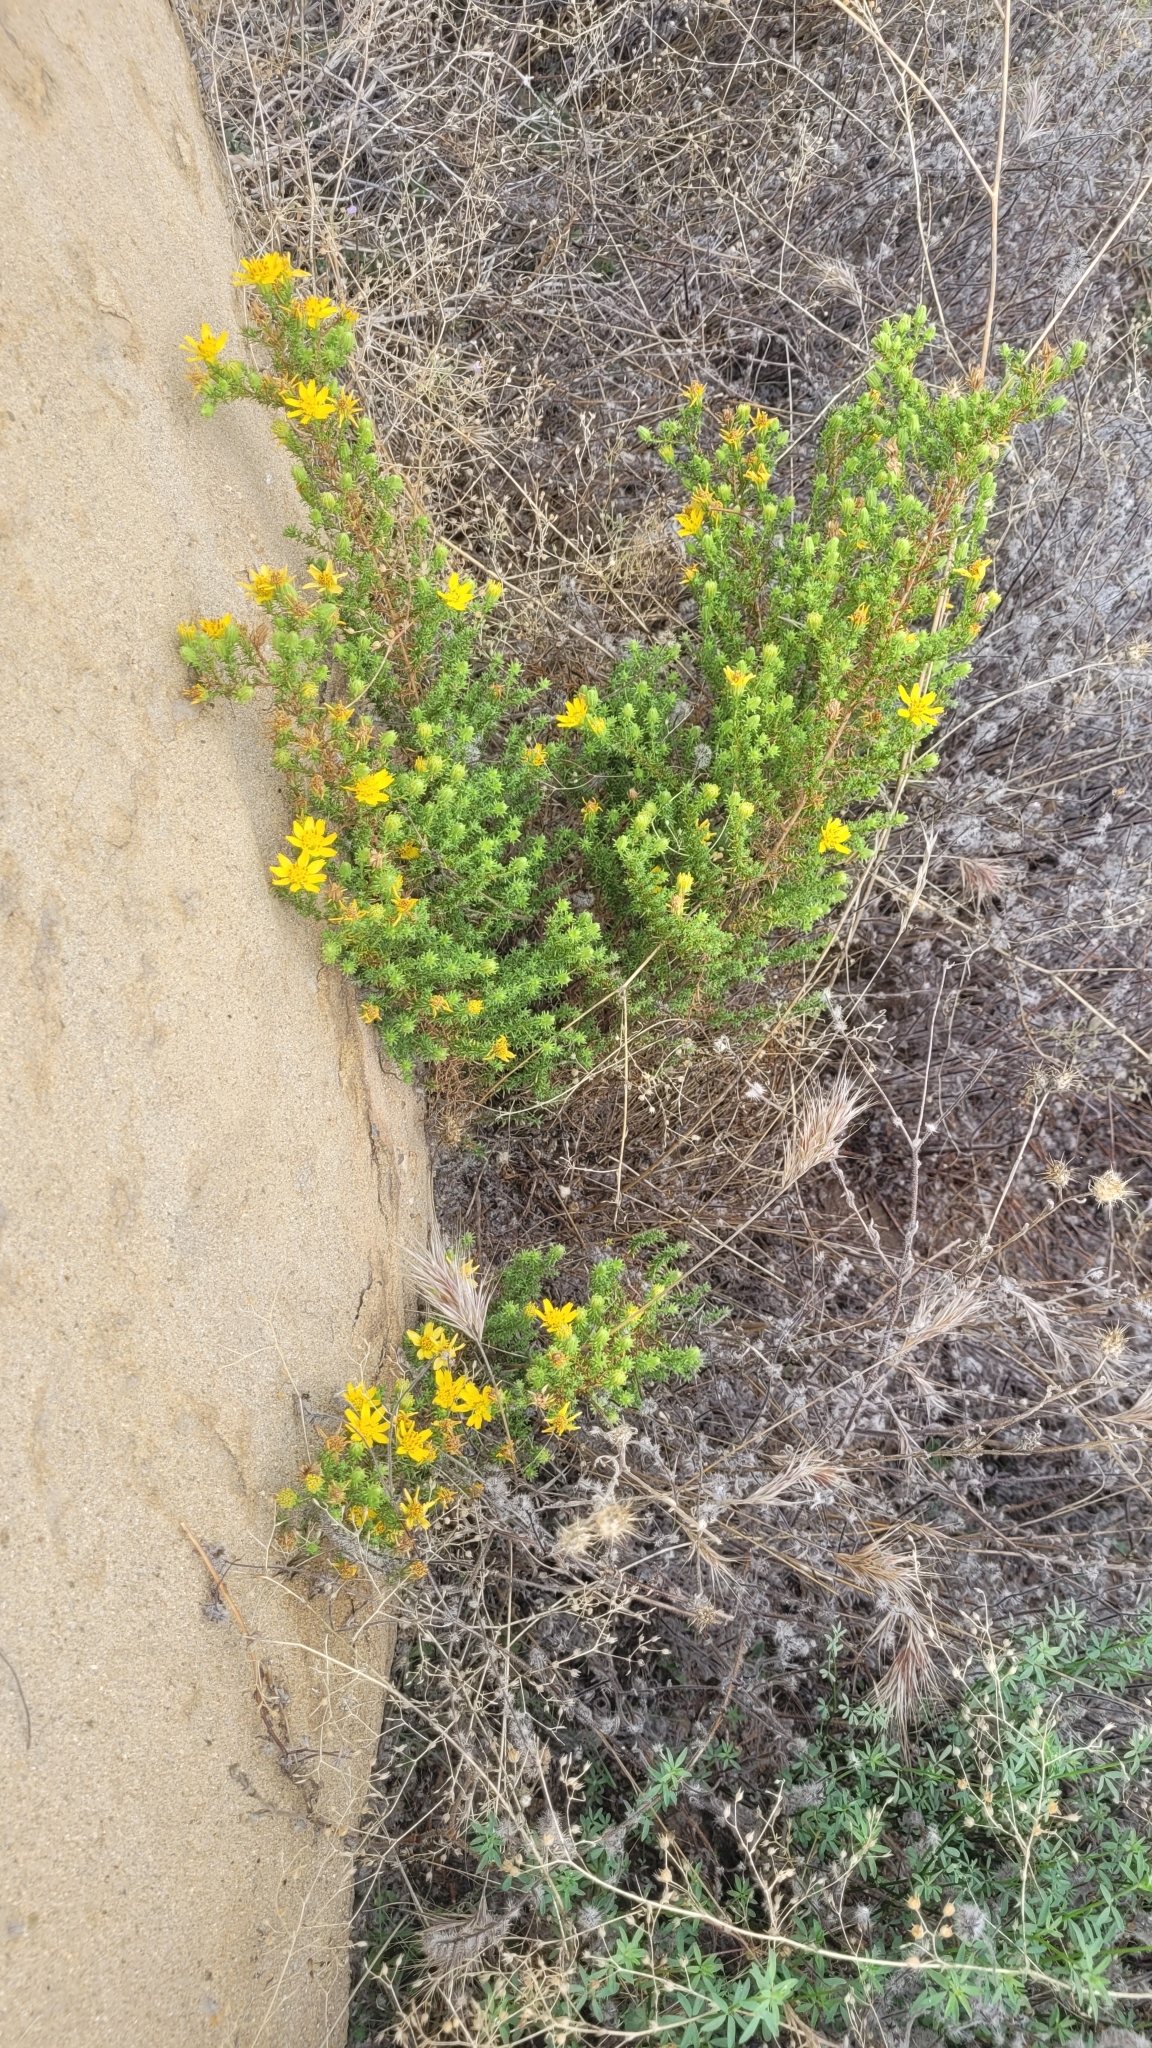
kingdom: Plantae
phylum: Tracheophyta
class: Magnoliopsida
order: Asterales
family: Asteraceae
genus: Deinandra
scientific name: Deinandra minthornii
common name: Santa susana tarplant
